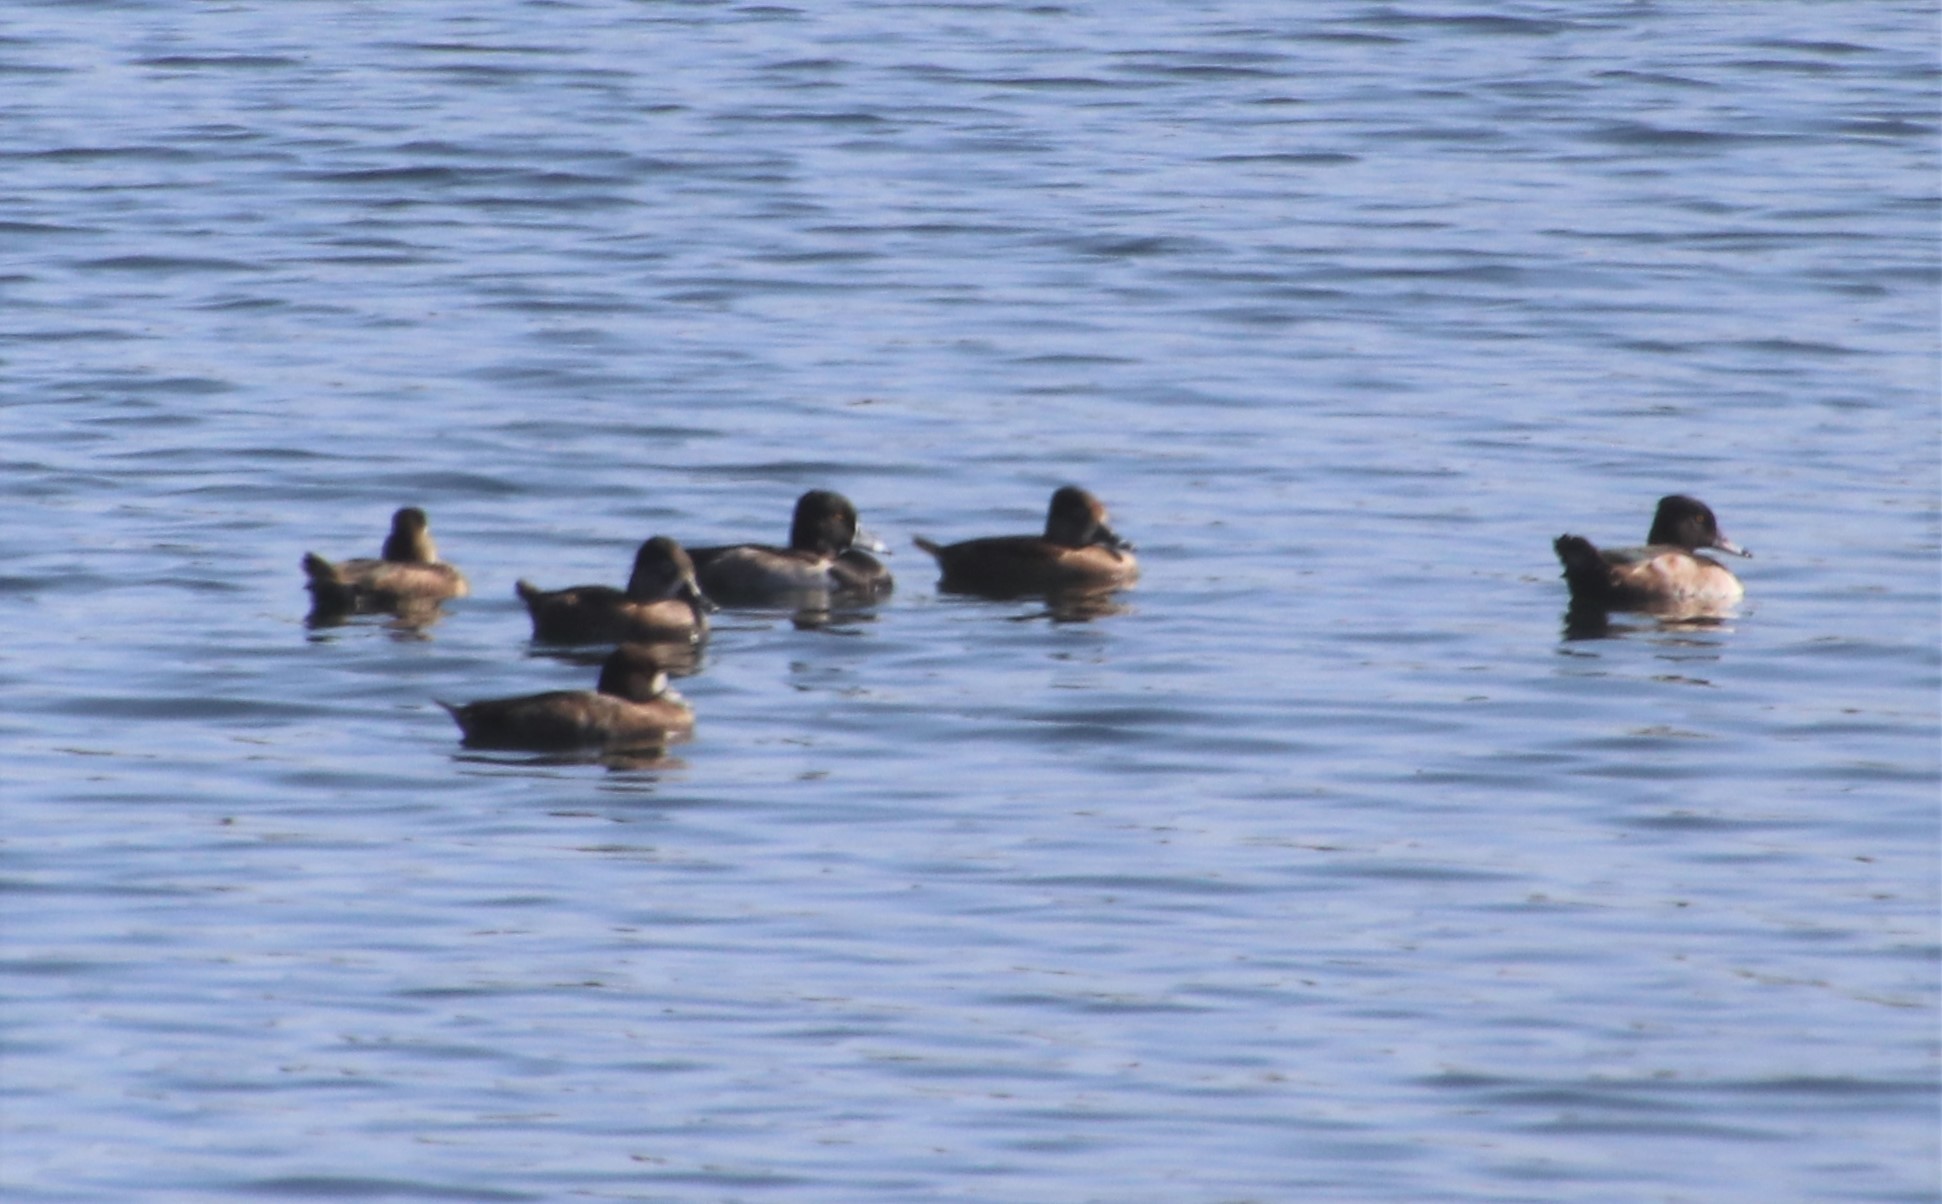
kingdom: Animalia
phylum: Chordata
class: Aves
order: Anseriformes
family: Anatidae
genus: Aythya
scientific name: Aythya collaris
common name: Ring-necked duck
